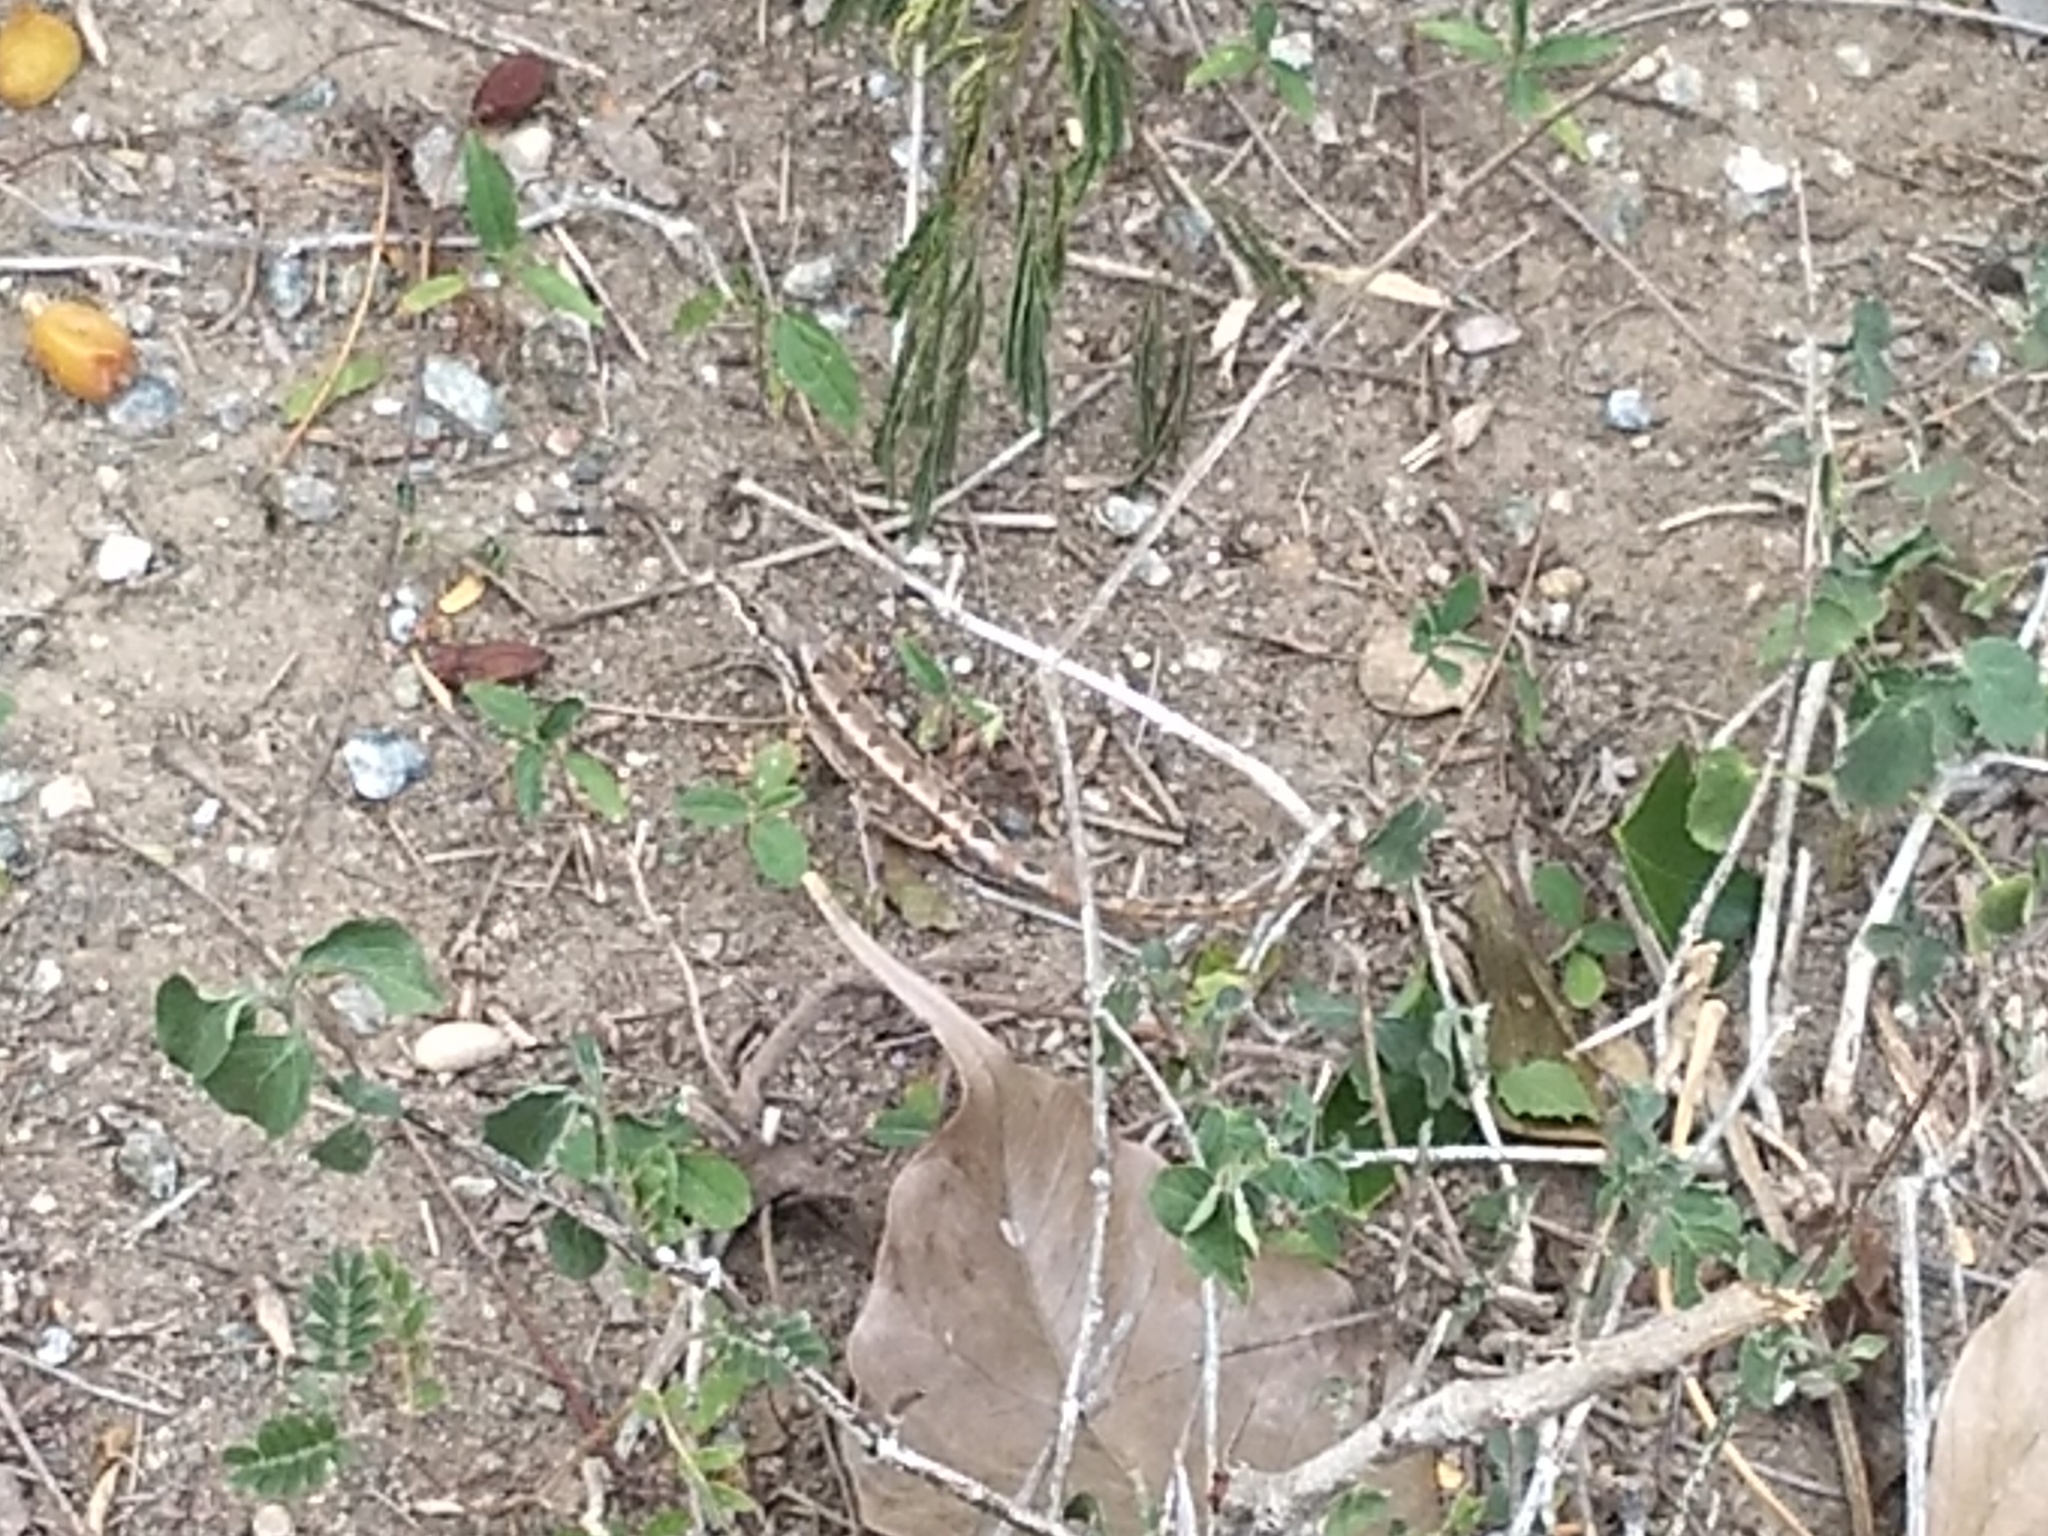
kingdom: Animalia
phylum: Chordata
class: Squamata
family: Agamidae
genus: Sitana
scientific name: Sitana ponticeriana
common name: Pondichéry fan throated lizard
